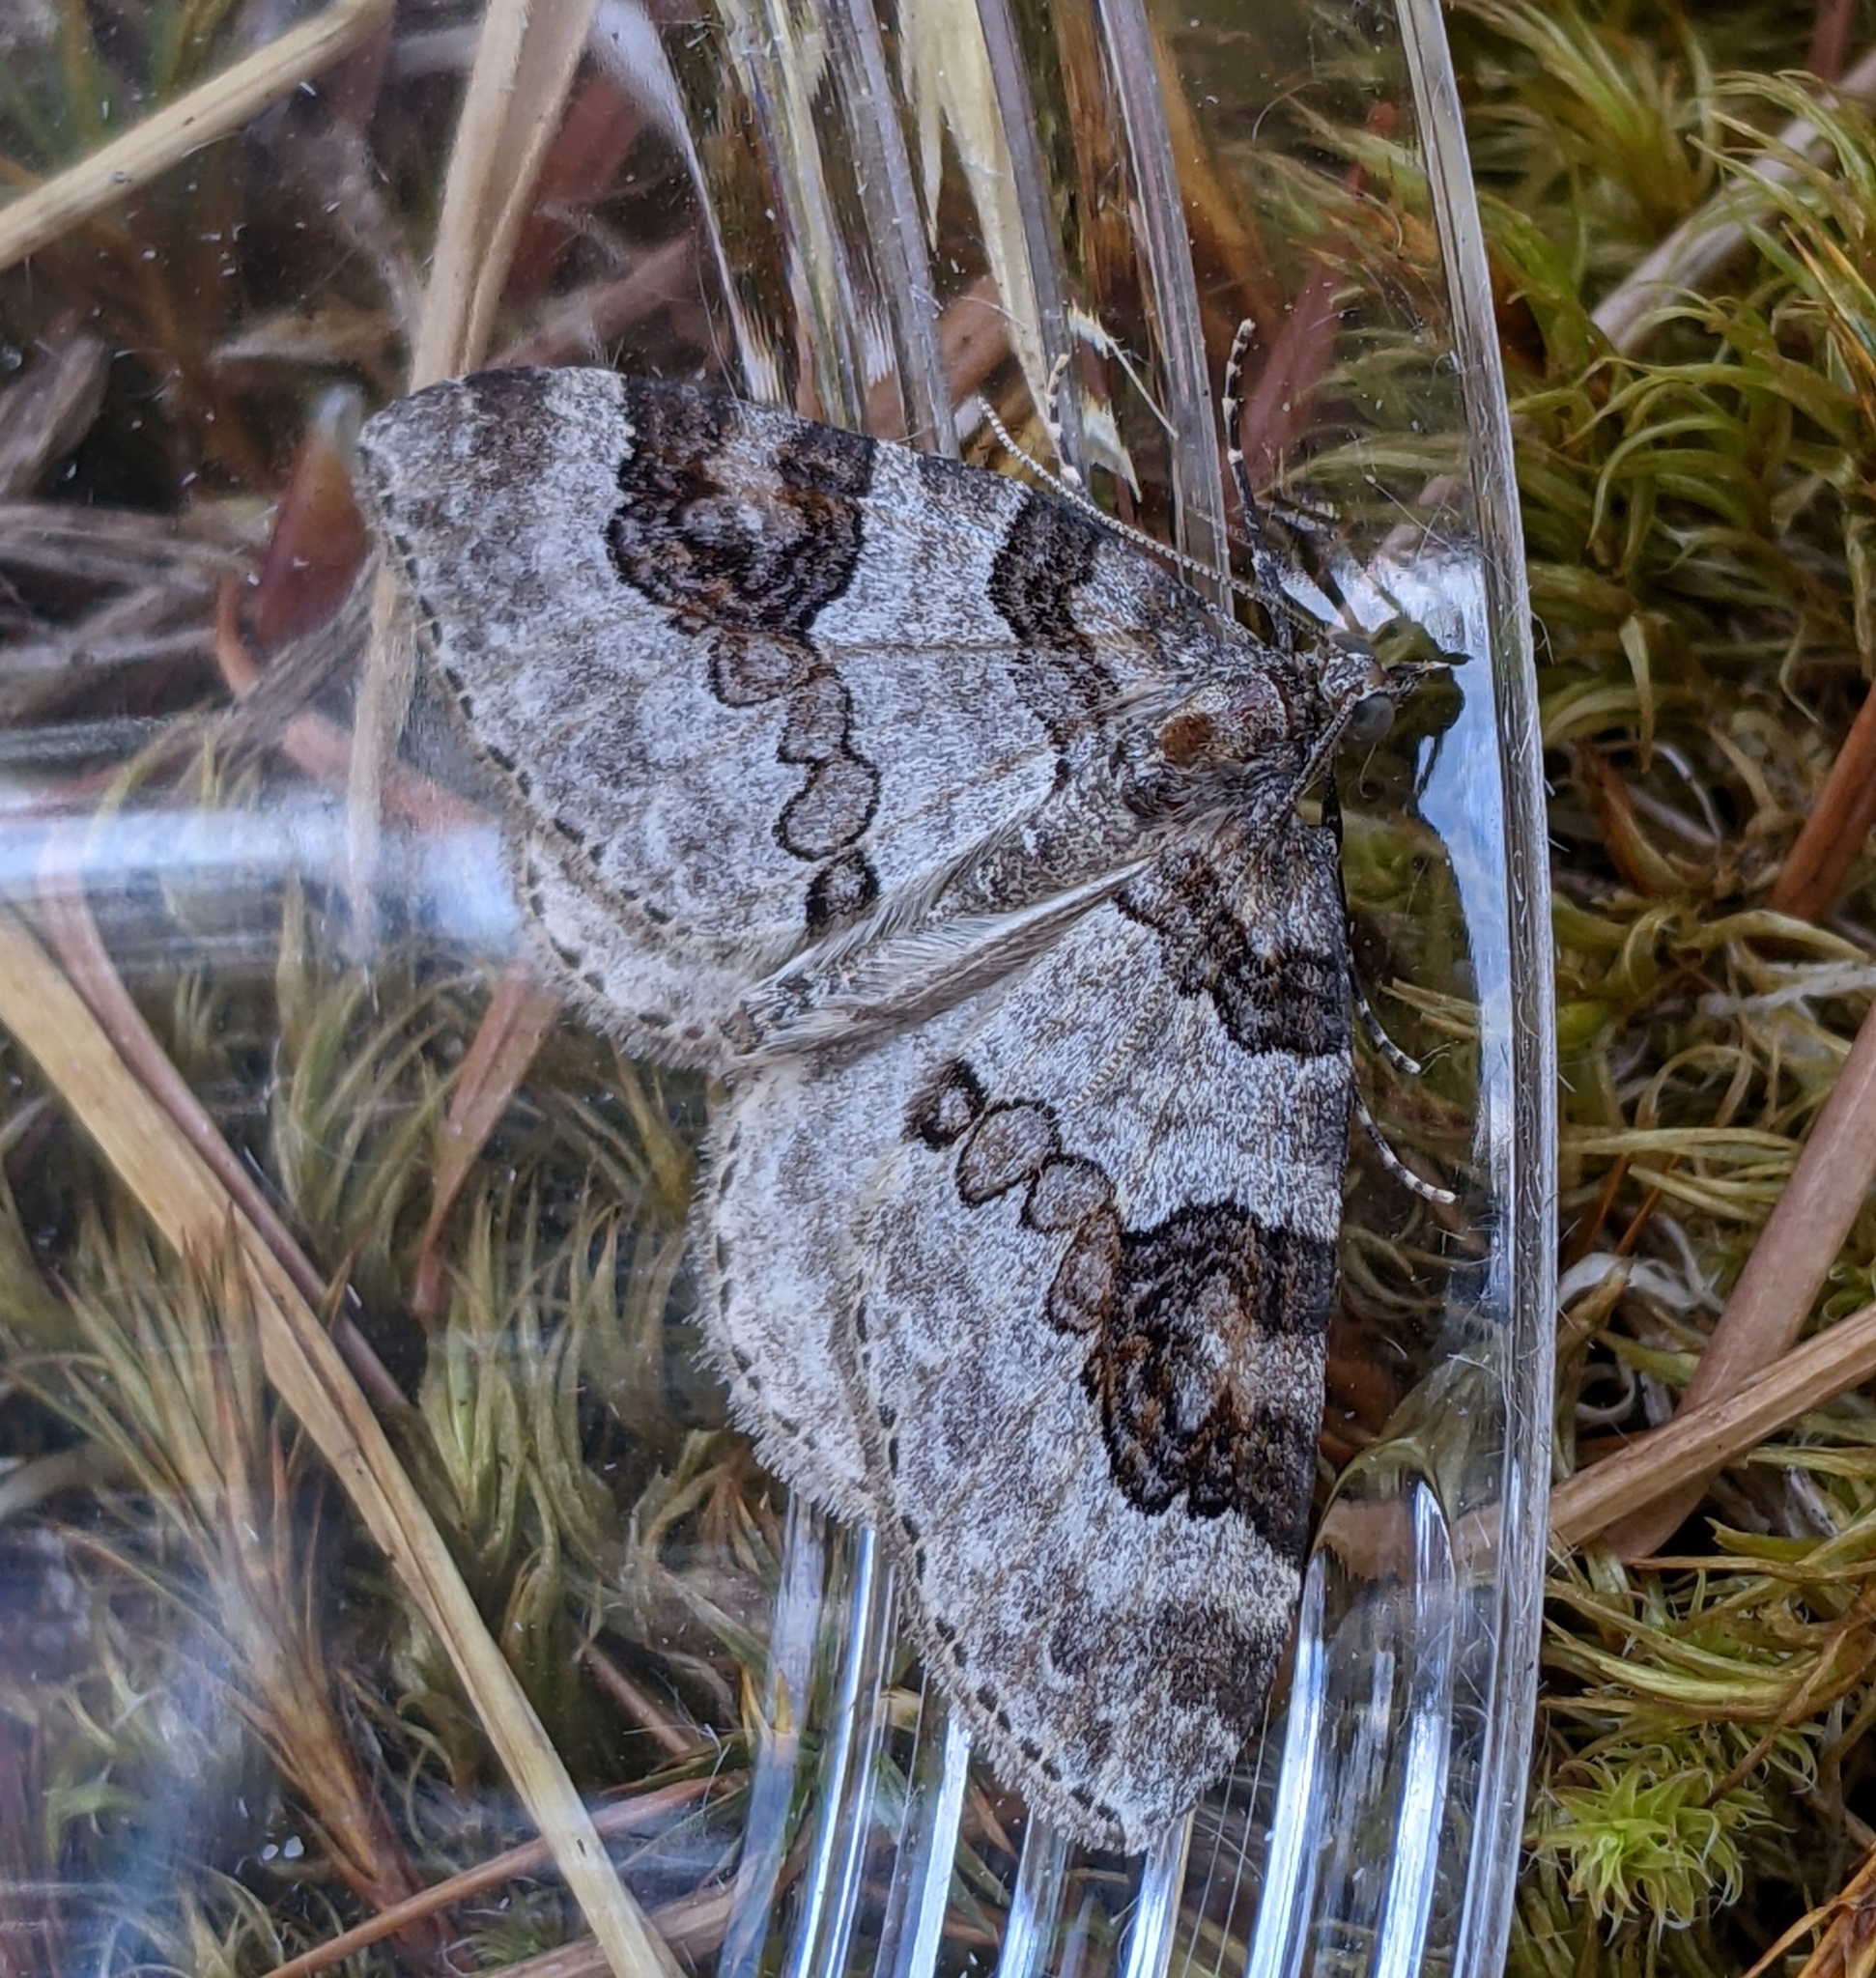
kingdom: Animalia
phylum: Arthropoda
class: Insecta
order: Lepidoptera
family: Geometridae
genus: Plemyria
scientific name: Plemyria georgii
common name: George's carpet moth
